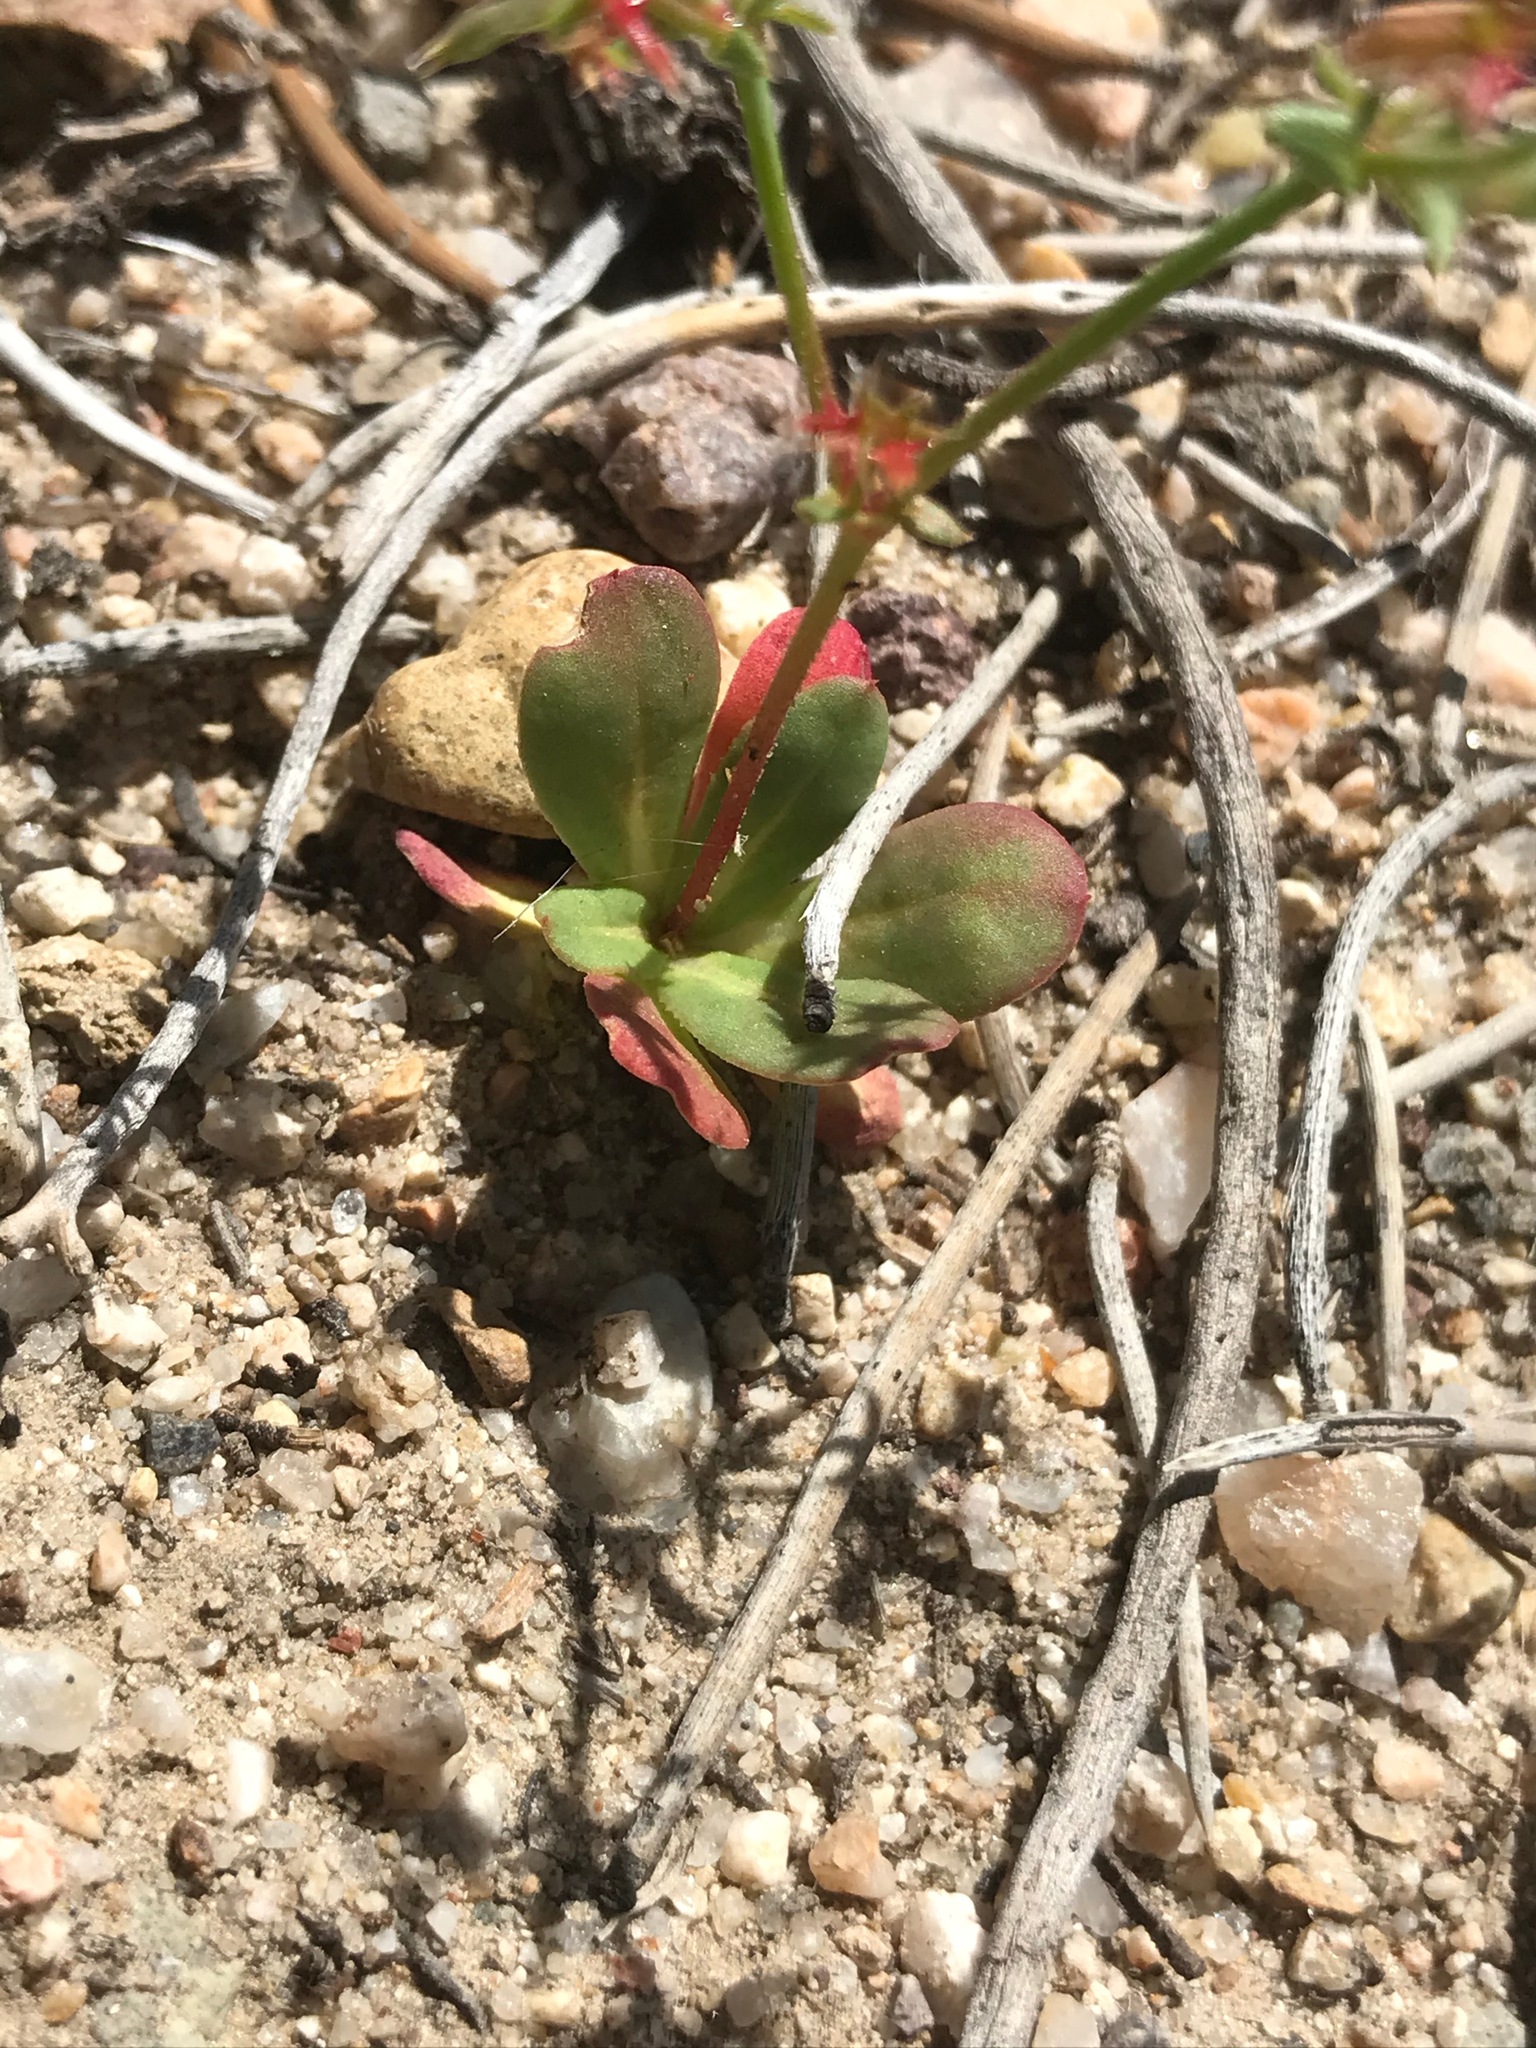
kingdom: Plantae
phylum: Tracheophyta
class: Magnoliopsida
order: Caryophyllales
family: Polygonaceae
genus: Centrostegia
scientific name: Centrostegia thurberi
